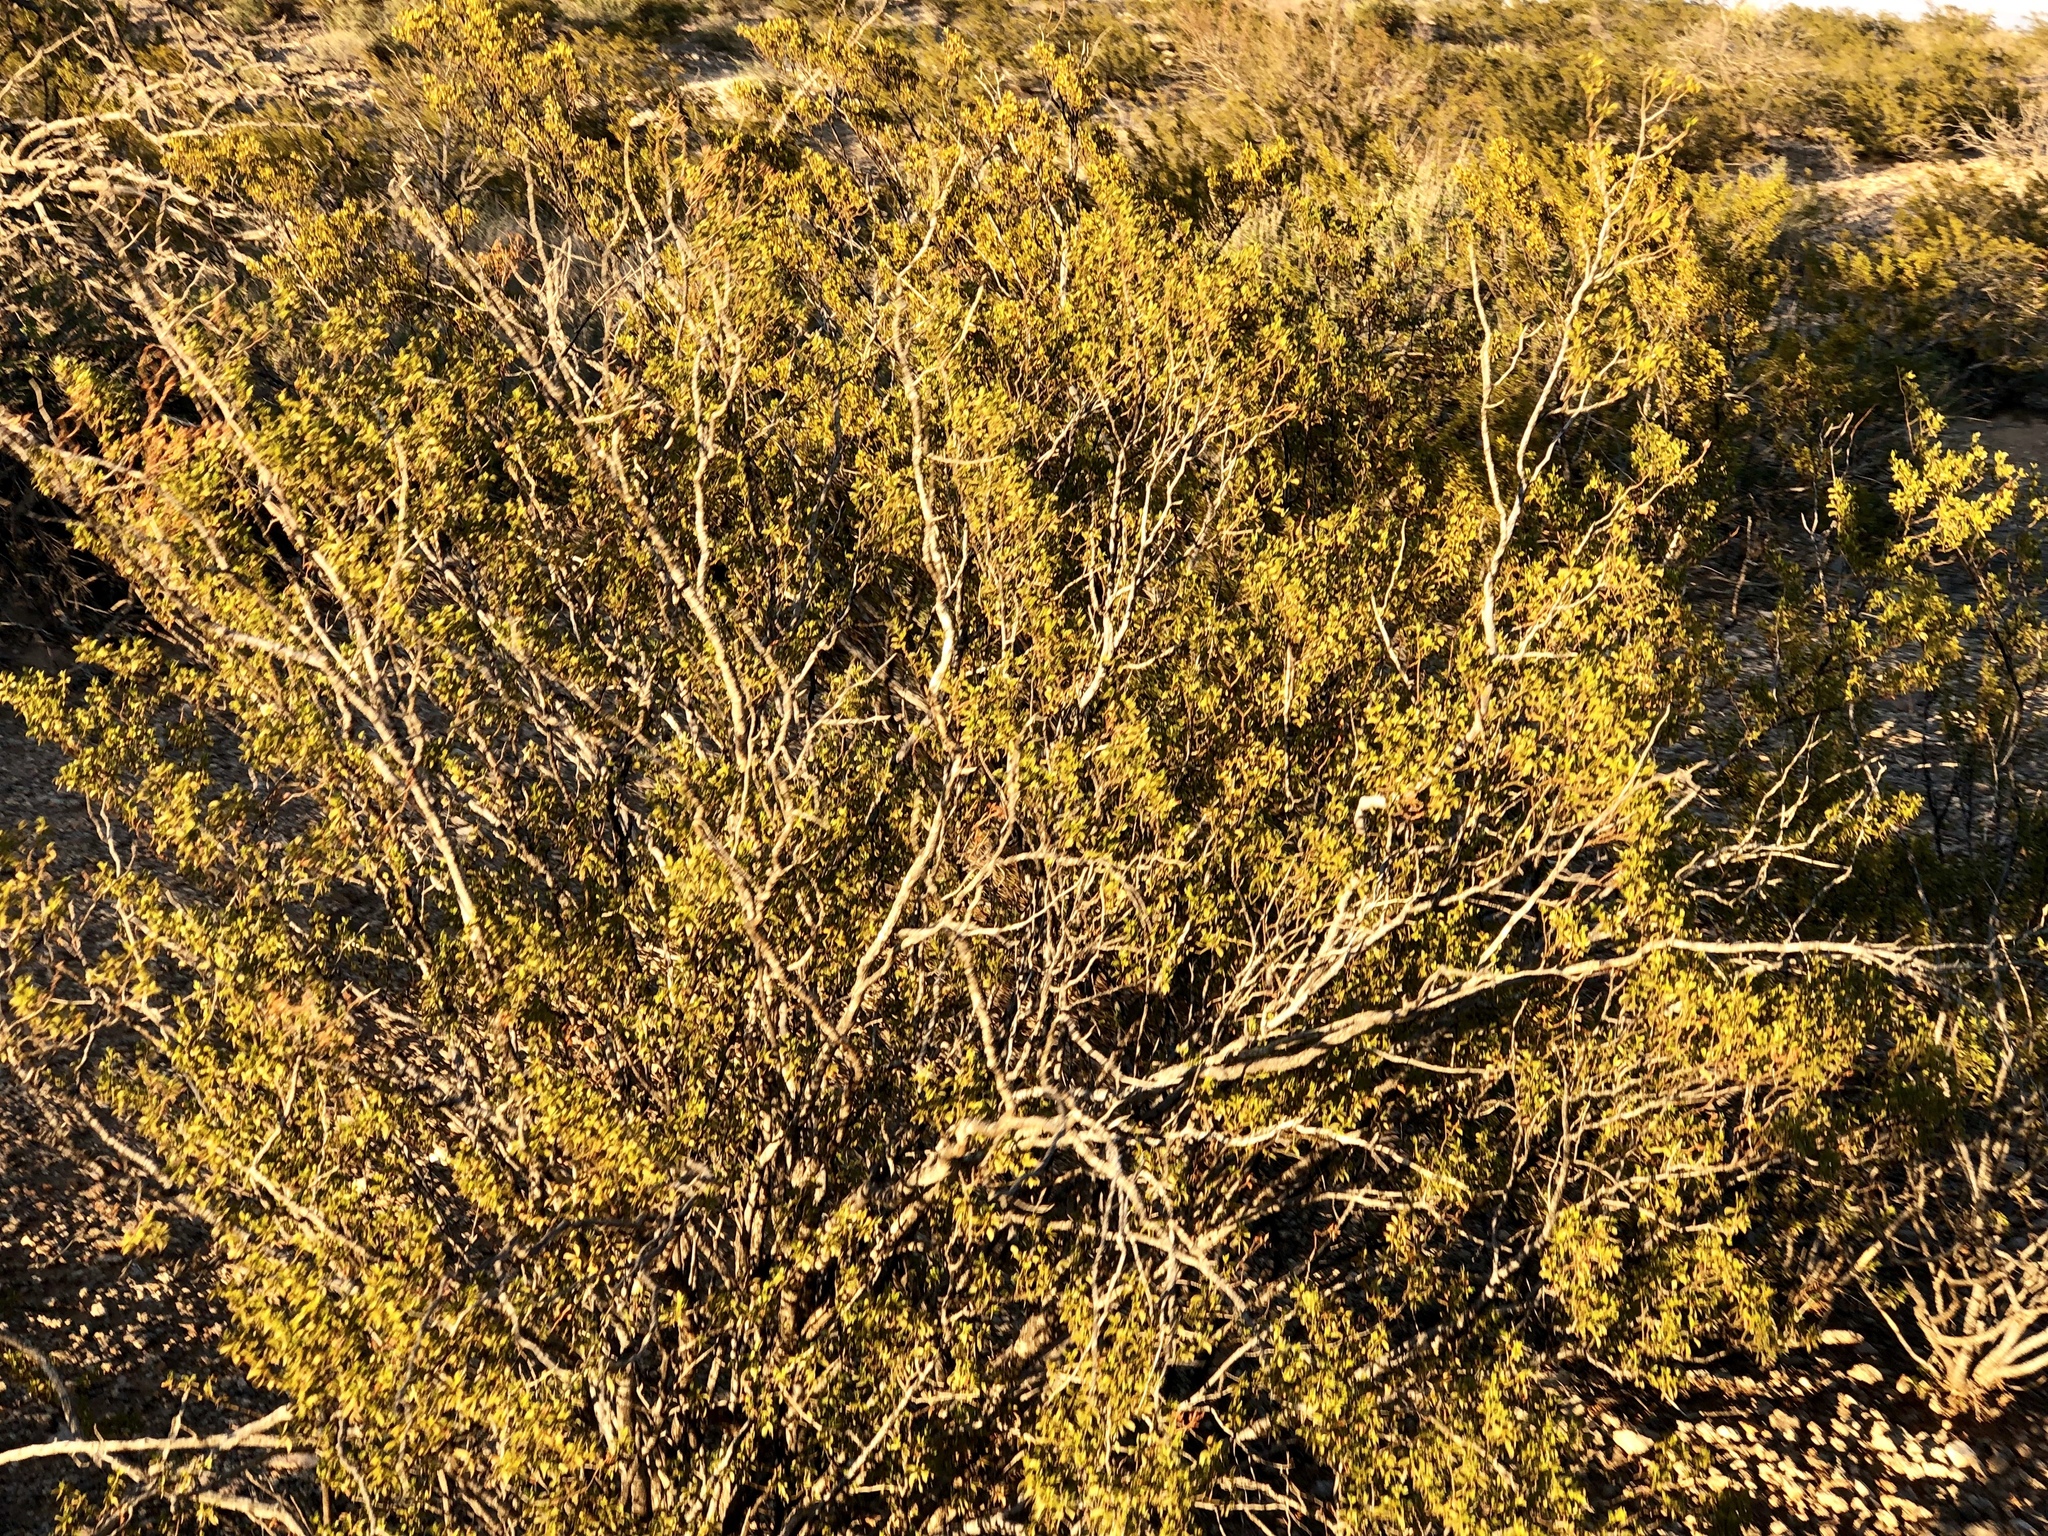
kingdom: Plantae
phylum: Tracheophyta
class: Magnoliopsida
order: Zygophyllales
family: Zygophyllaceae
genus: Larrea
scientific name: Larrea tridentata
